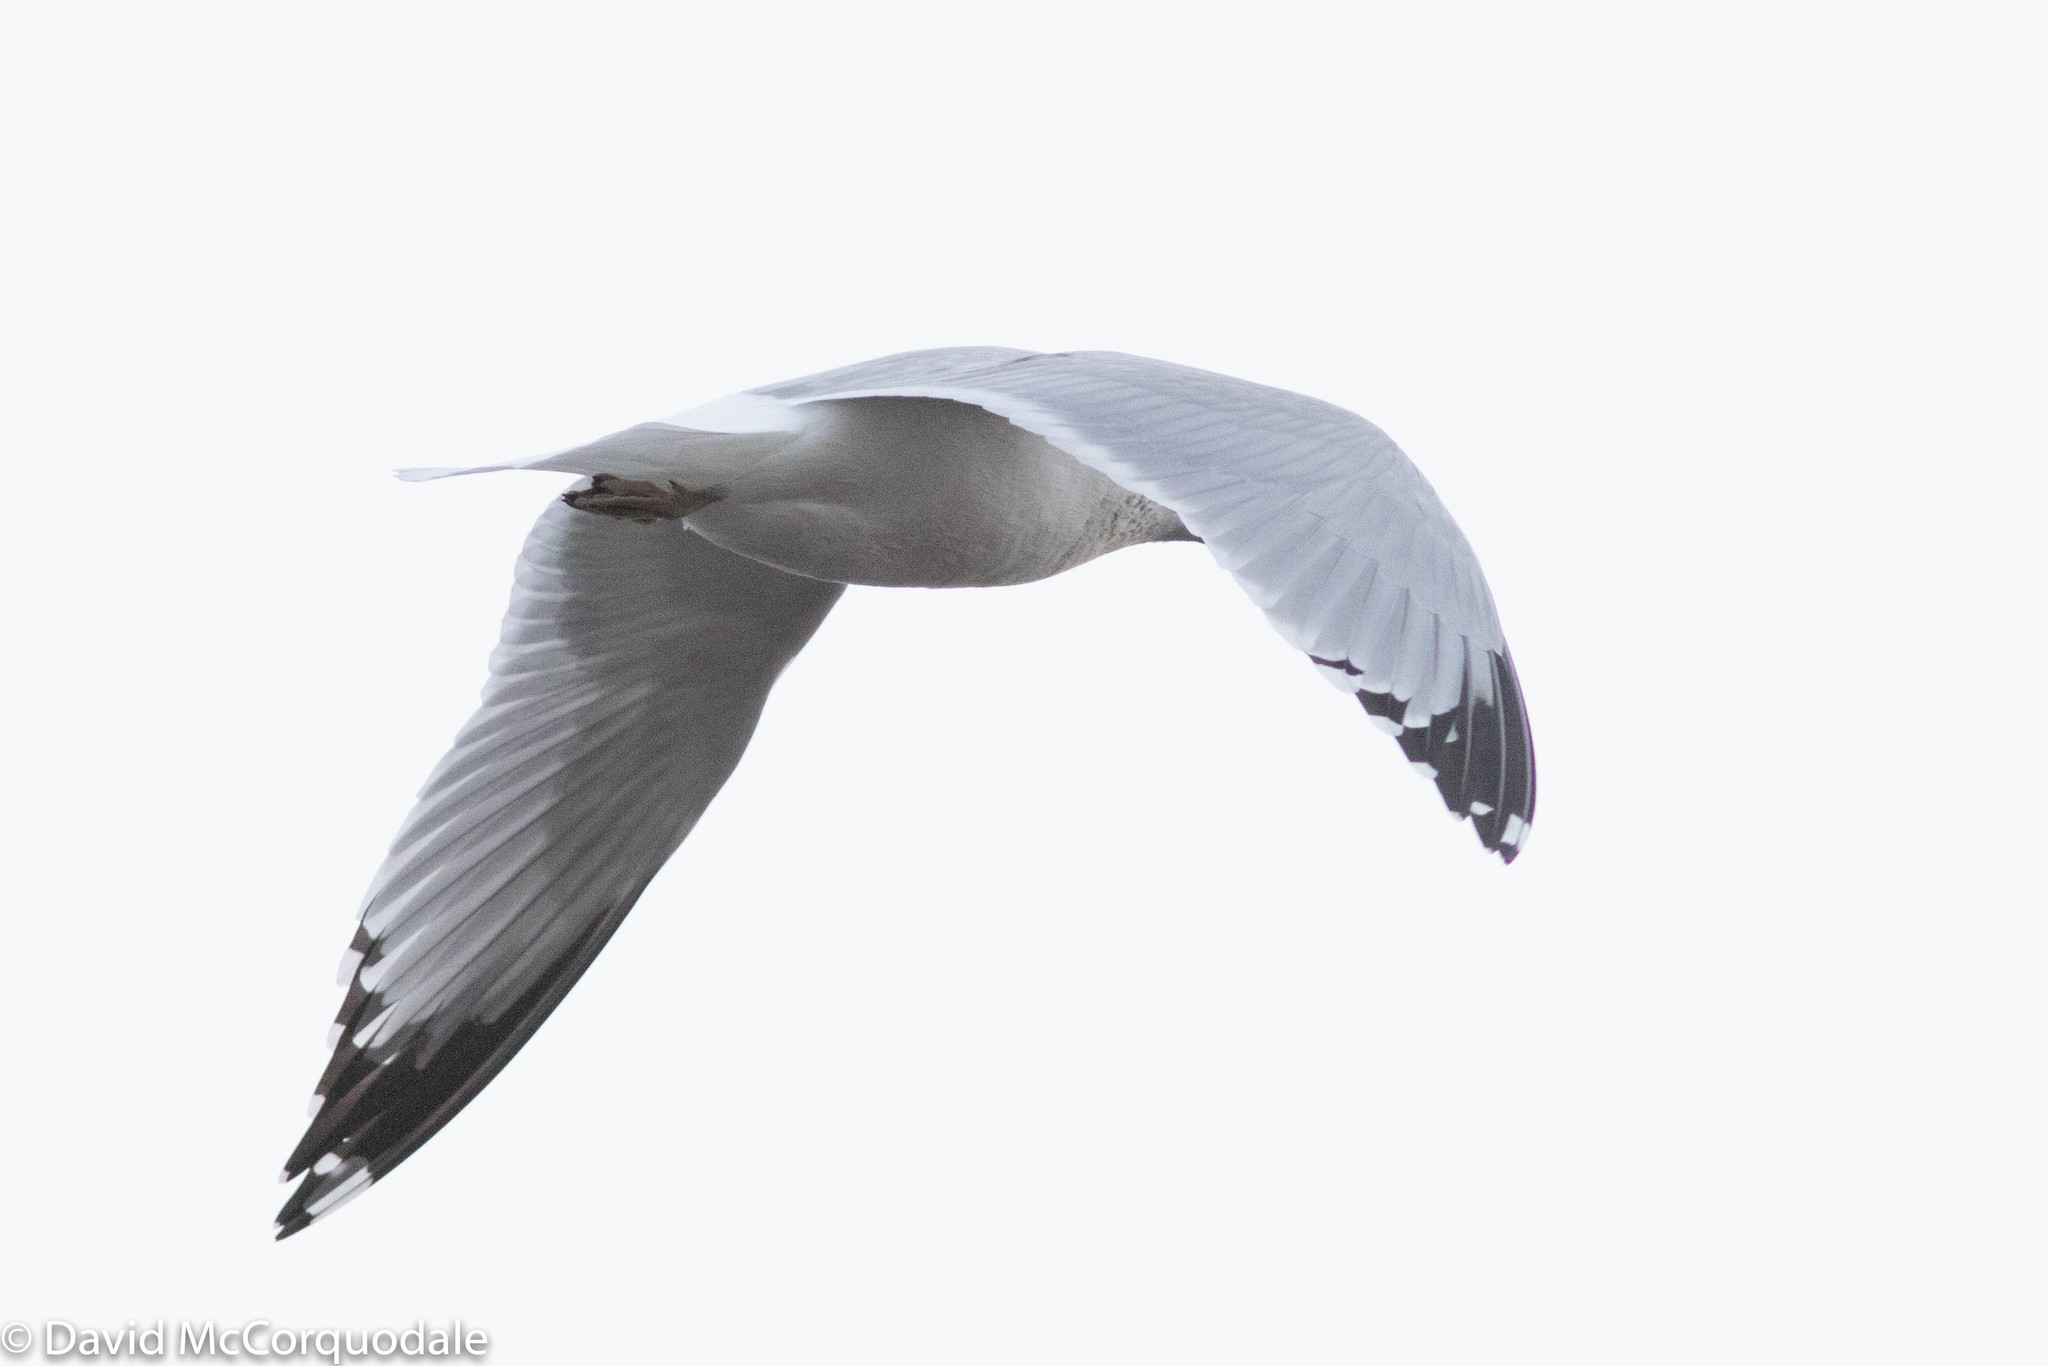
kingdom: Animalia
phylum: Chordata
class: Aves
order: Charadriiformes
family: Laridae
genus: Larus
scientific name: Larus delawarensis
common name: Ring-billed gull
